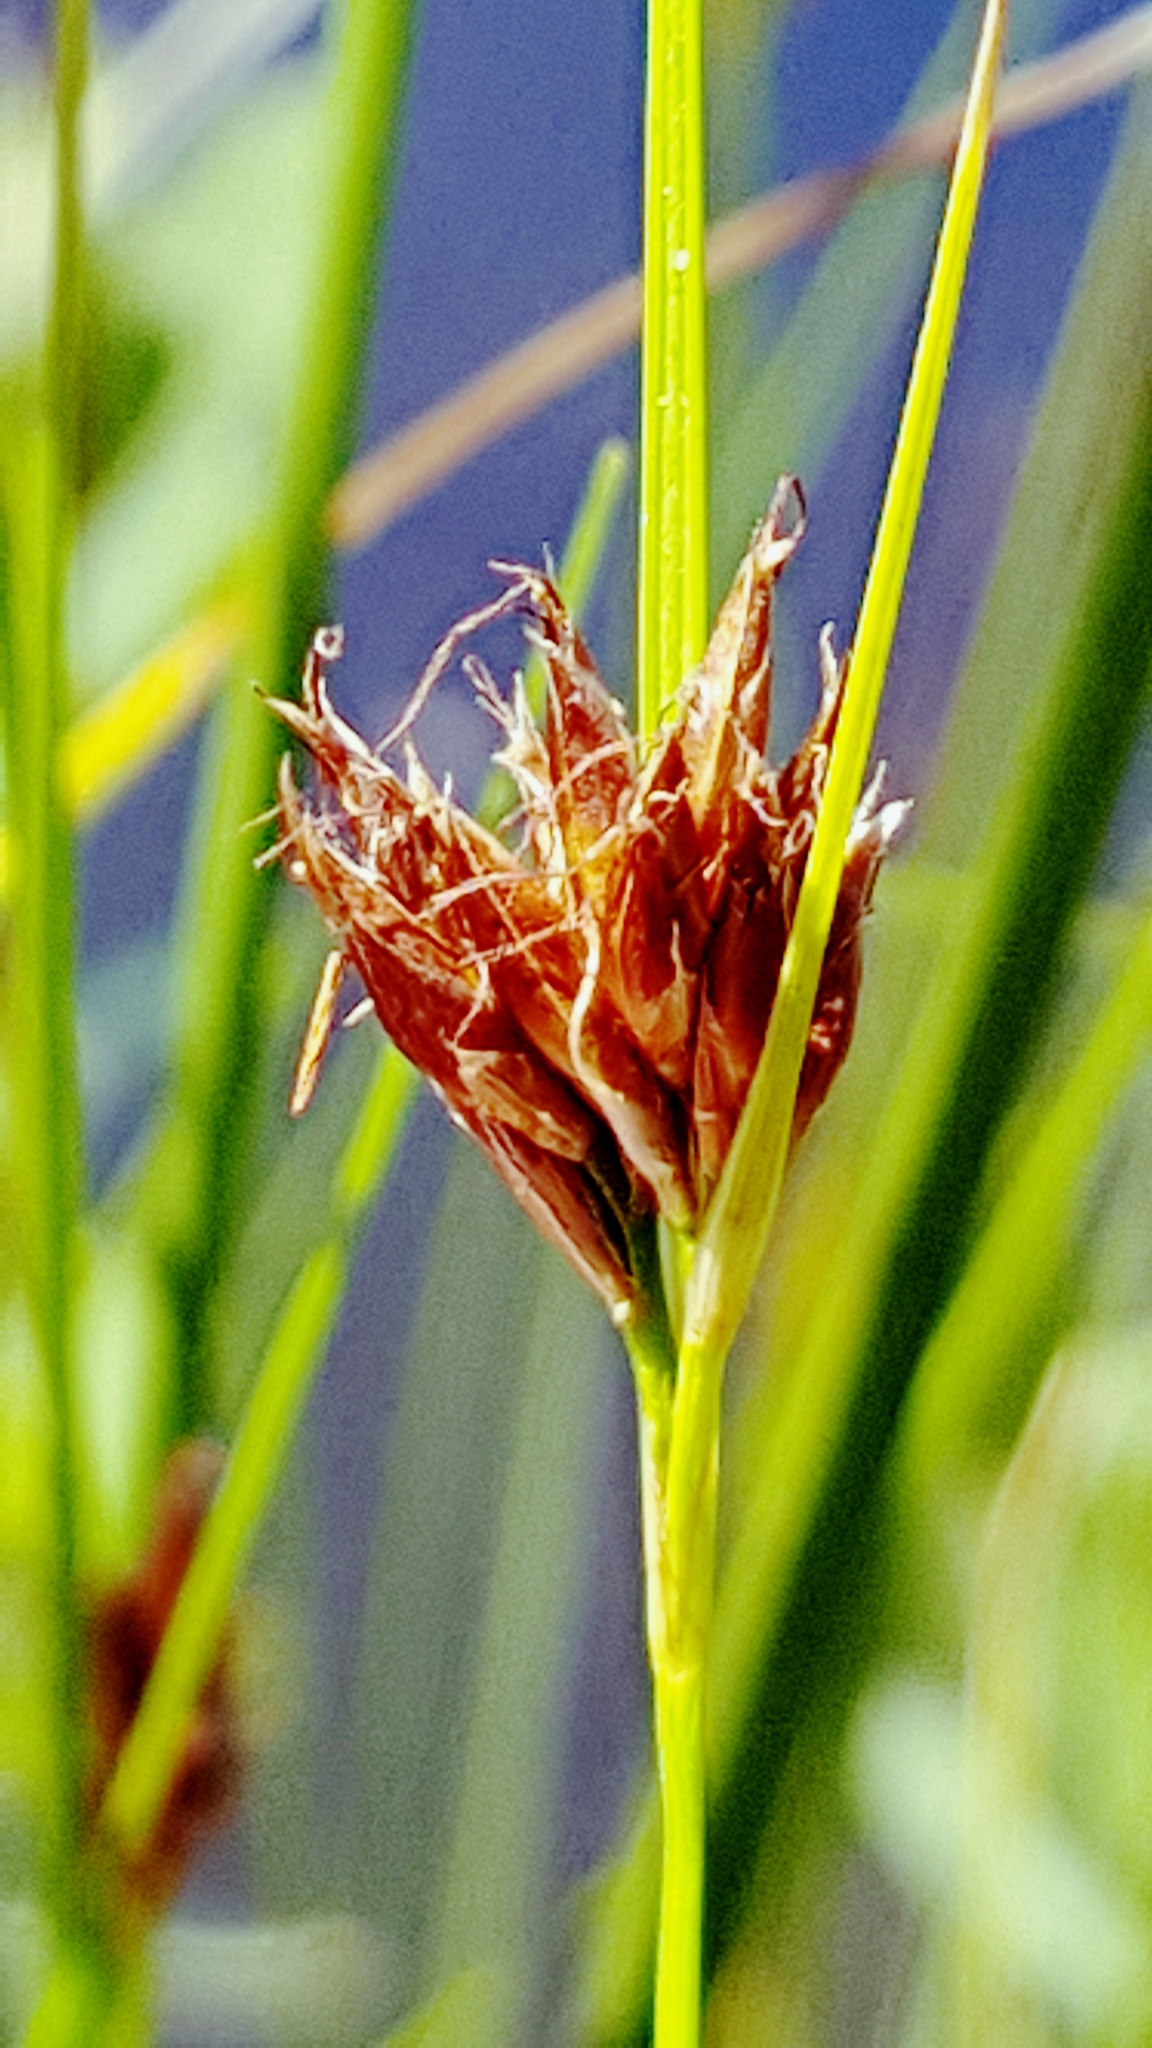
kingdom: Plantae
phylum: Tracheophyta
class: Liliopsida
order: Poales
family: Cyperaceae
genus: Rhynchospora
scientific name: Rhynchospora fusca
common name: Brown beak-sedge
